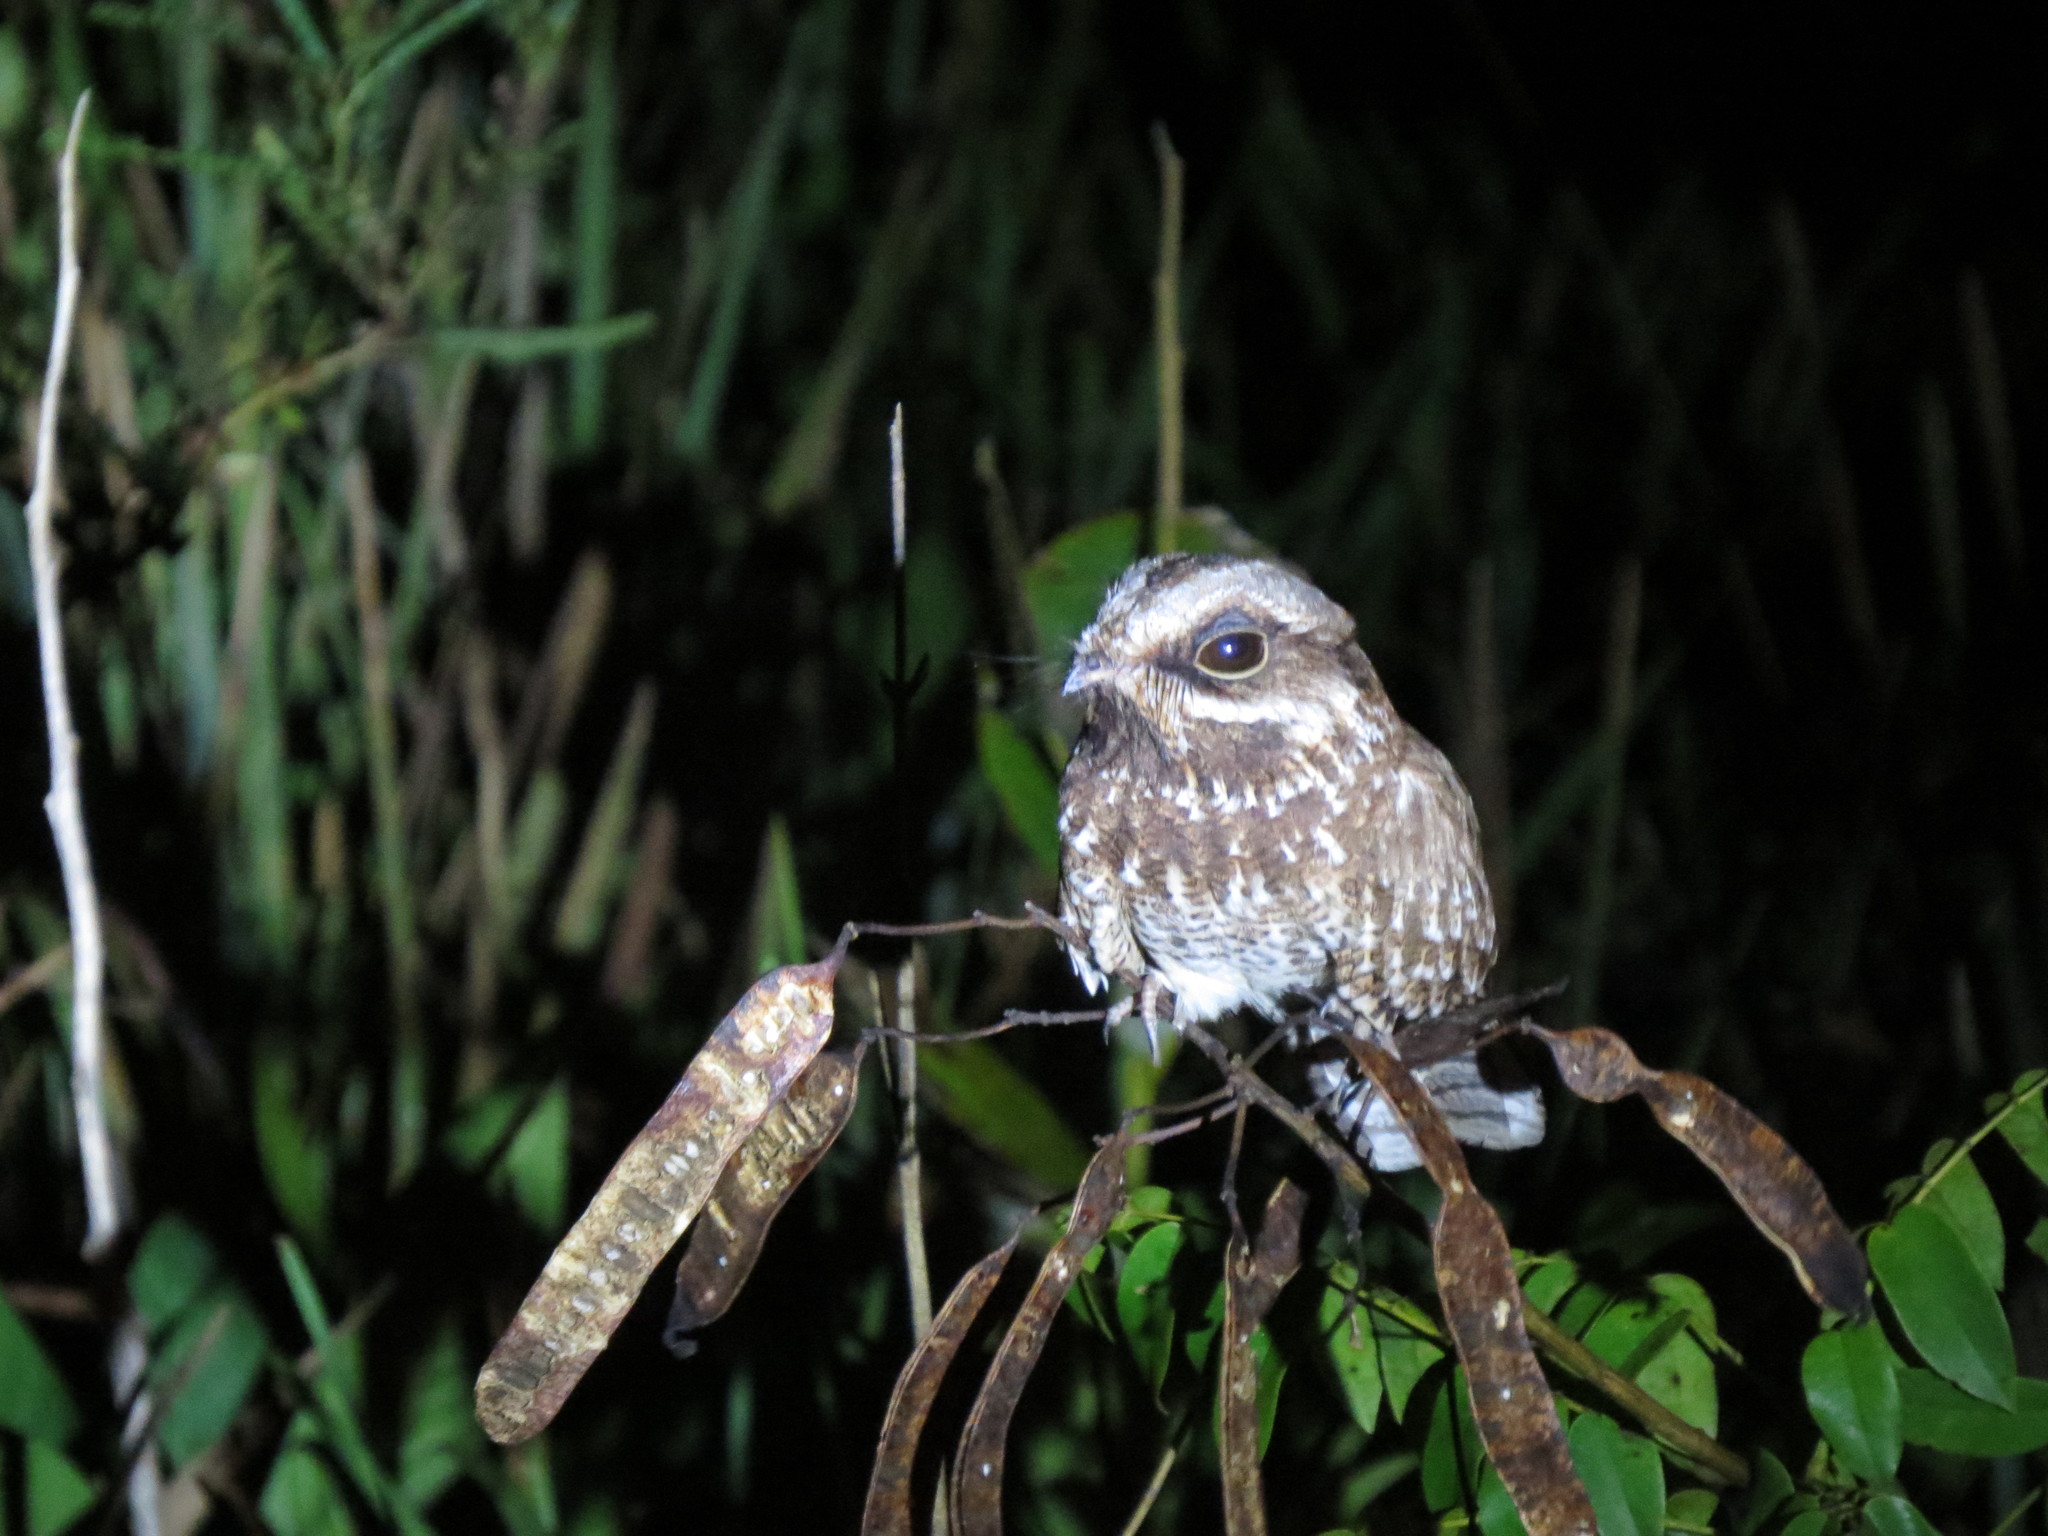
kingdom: Animalia
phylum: Chordata
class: Aves
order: Caprimulgiformes
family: Caprimulgidae
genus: Eleothreptus
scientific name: Eleothreptus candicans
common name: White-winged nightjar
